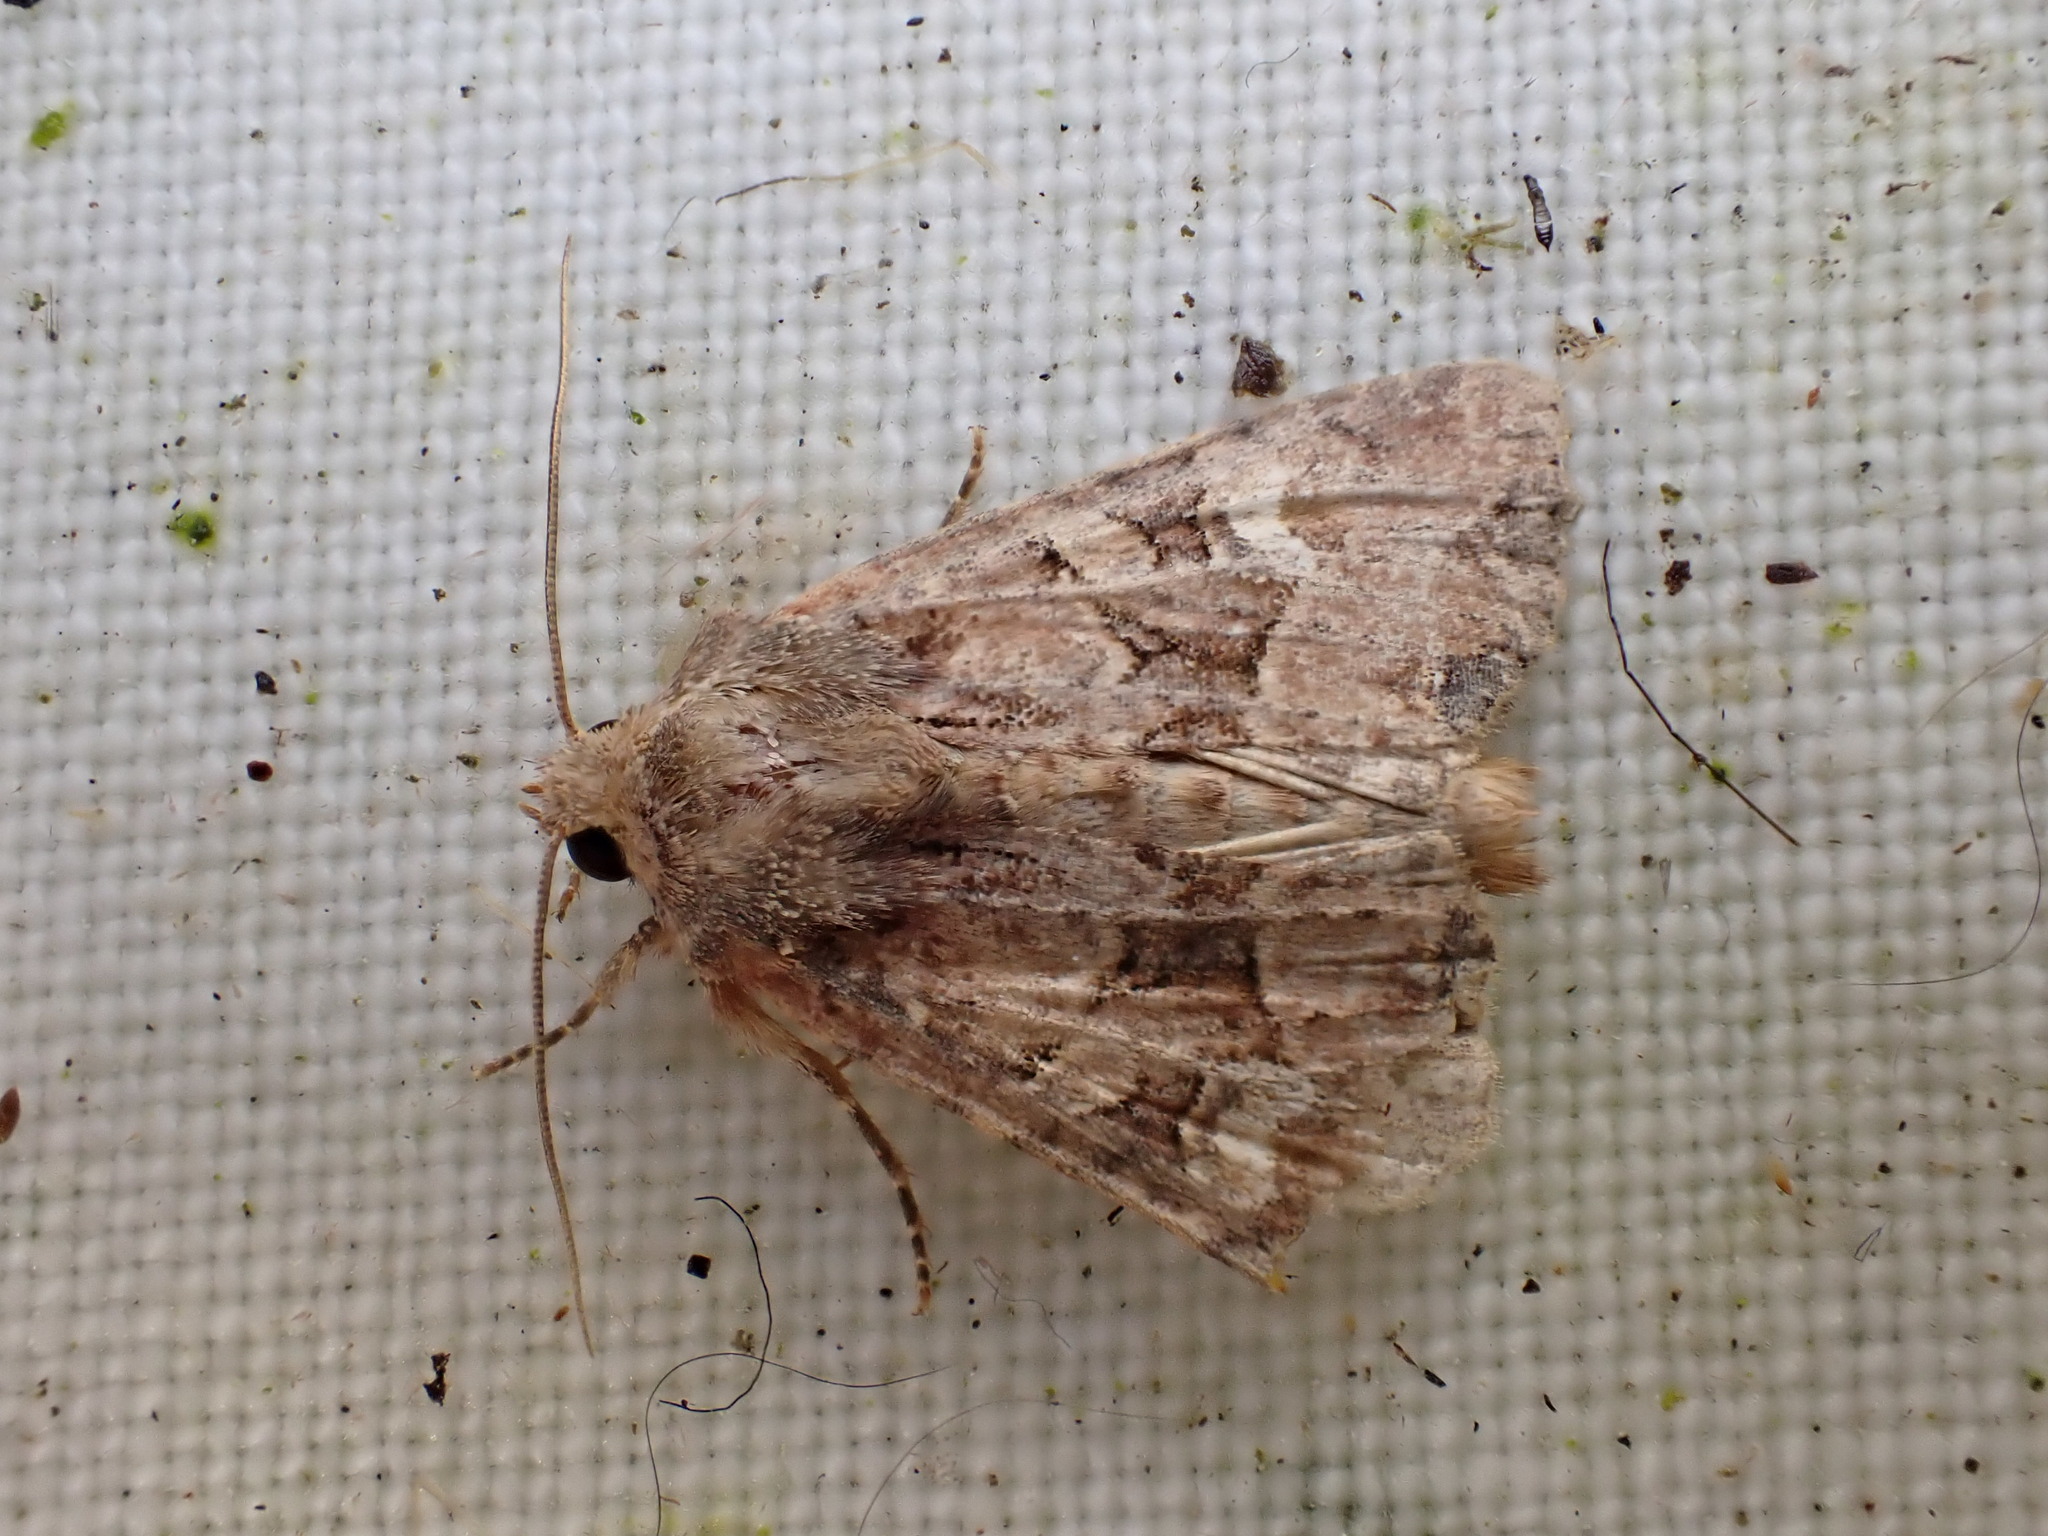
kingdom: Animalia
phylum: Arthropoda
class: Insecta
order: Lepidoptera
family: Noctuidae
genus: Mesoligia
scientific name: Mesoligia furuncula
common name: Cloaked minor
